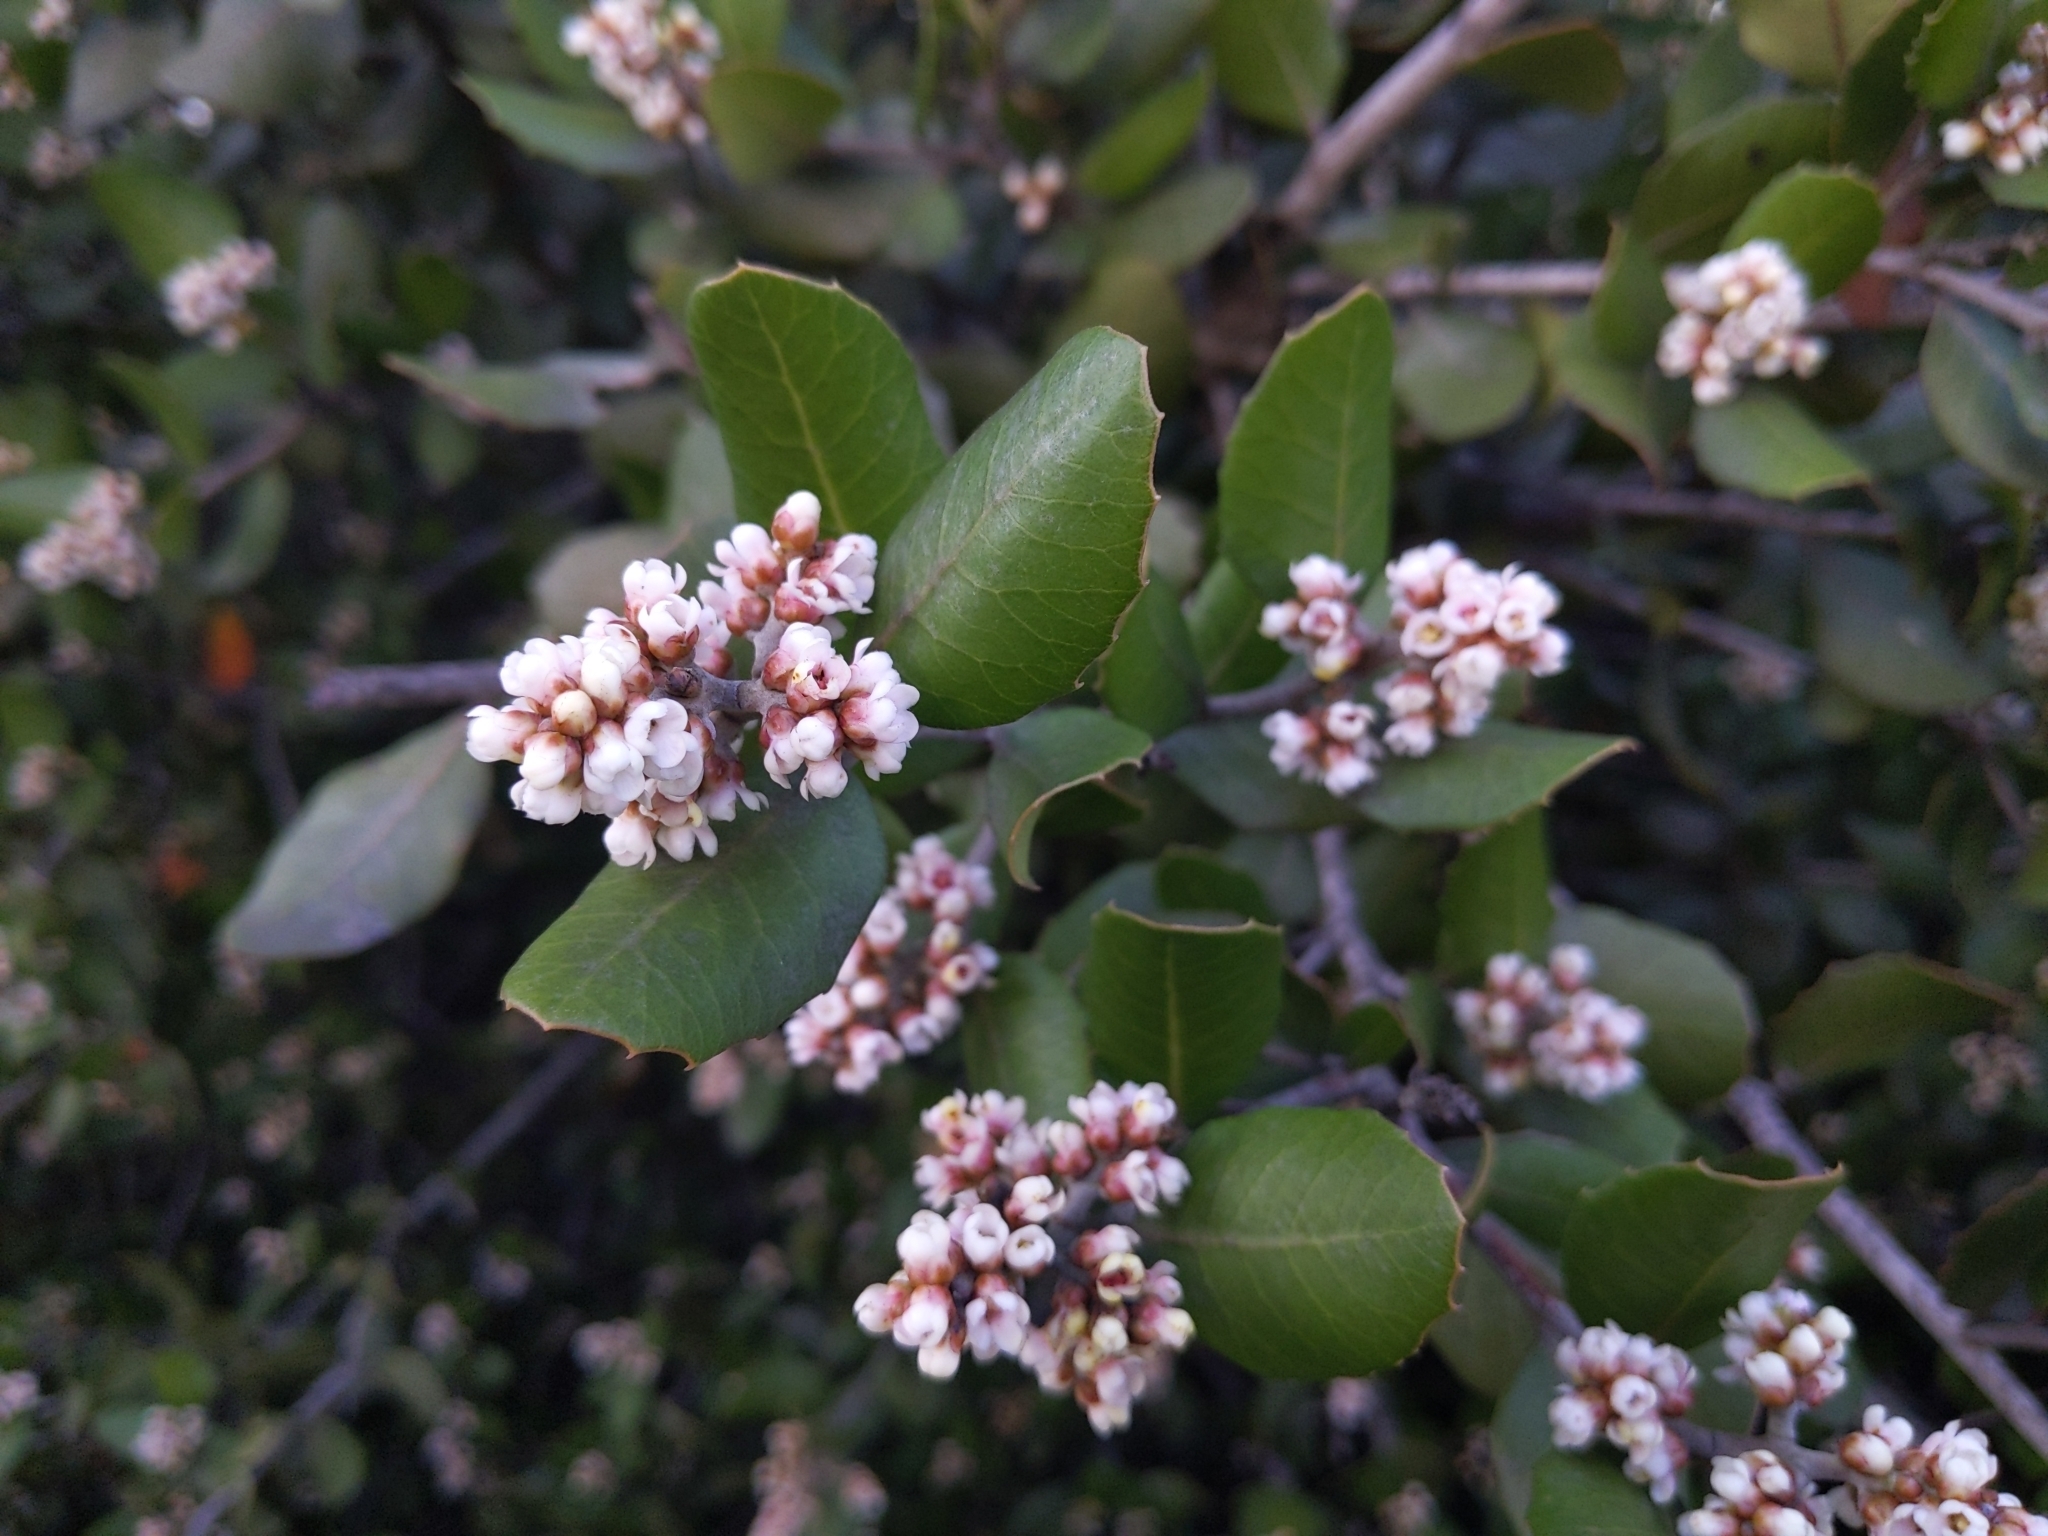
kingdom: Plantae
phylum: Tracheophyta
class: Magnoliopsida
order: Sapindales
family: Anacardiaceae
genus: Rhus
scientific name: Rhus integrifolia
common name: Lemonade sumac
